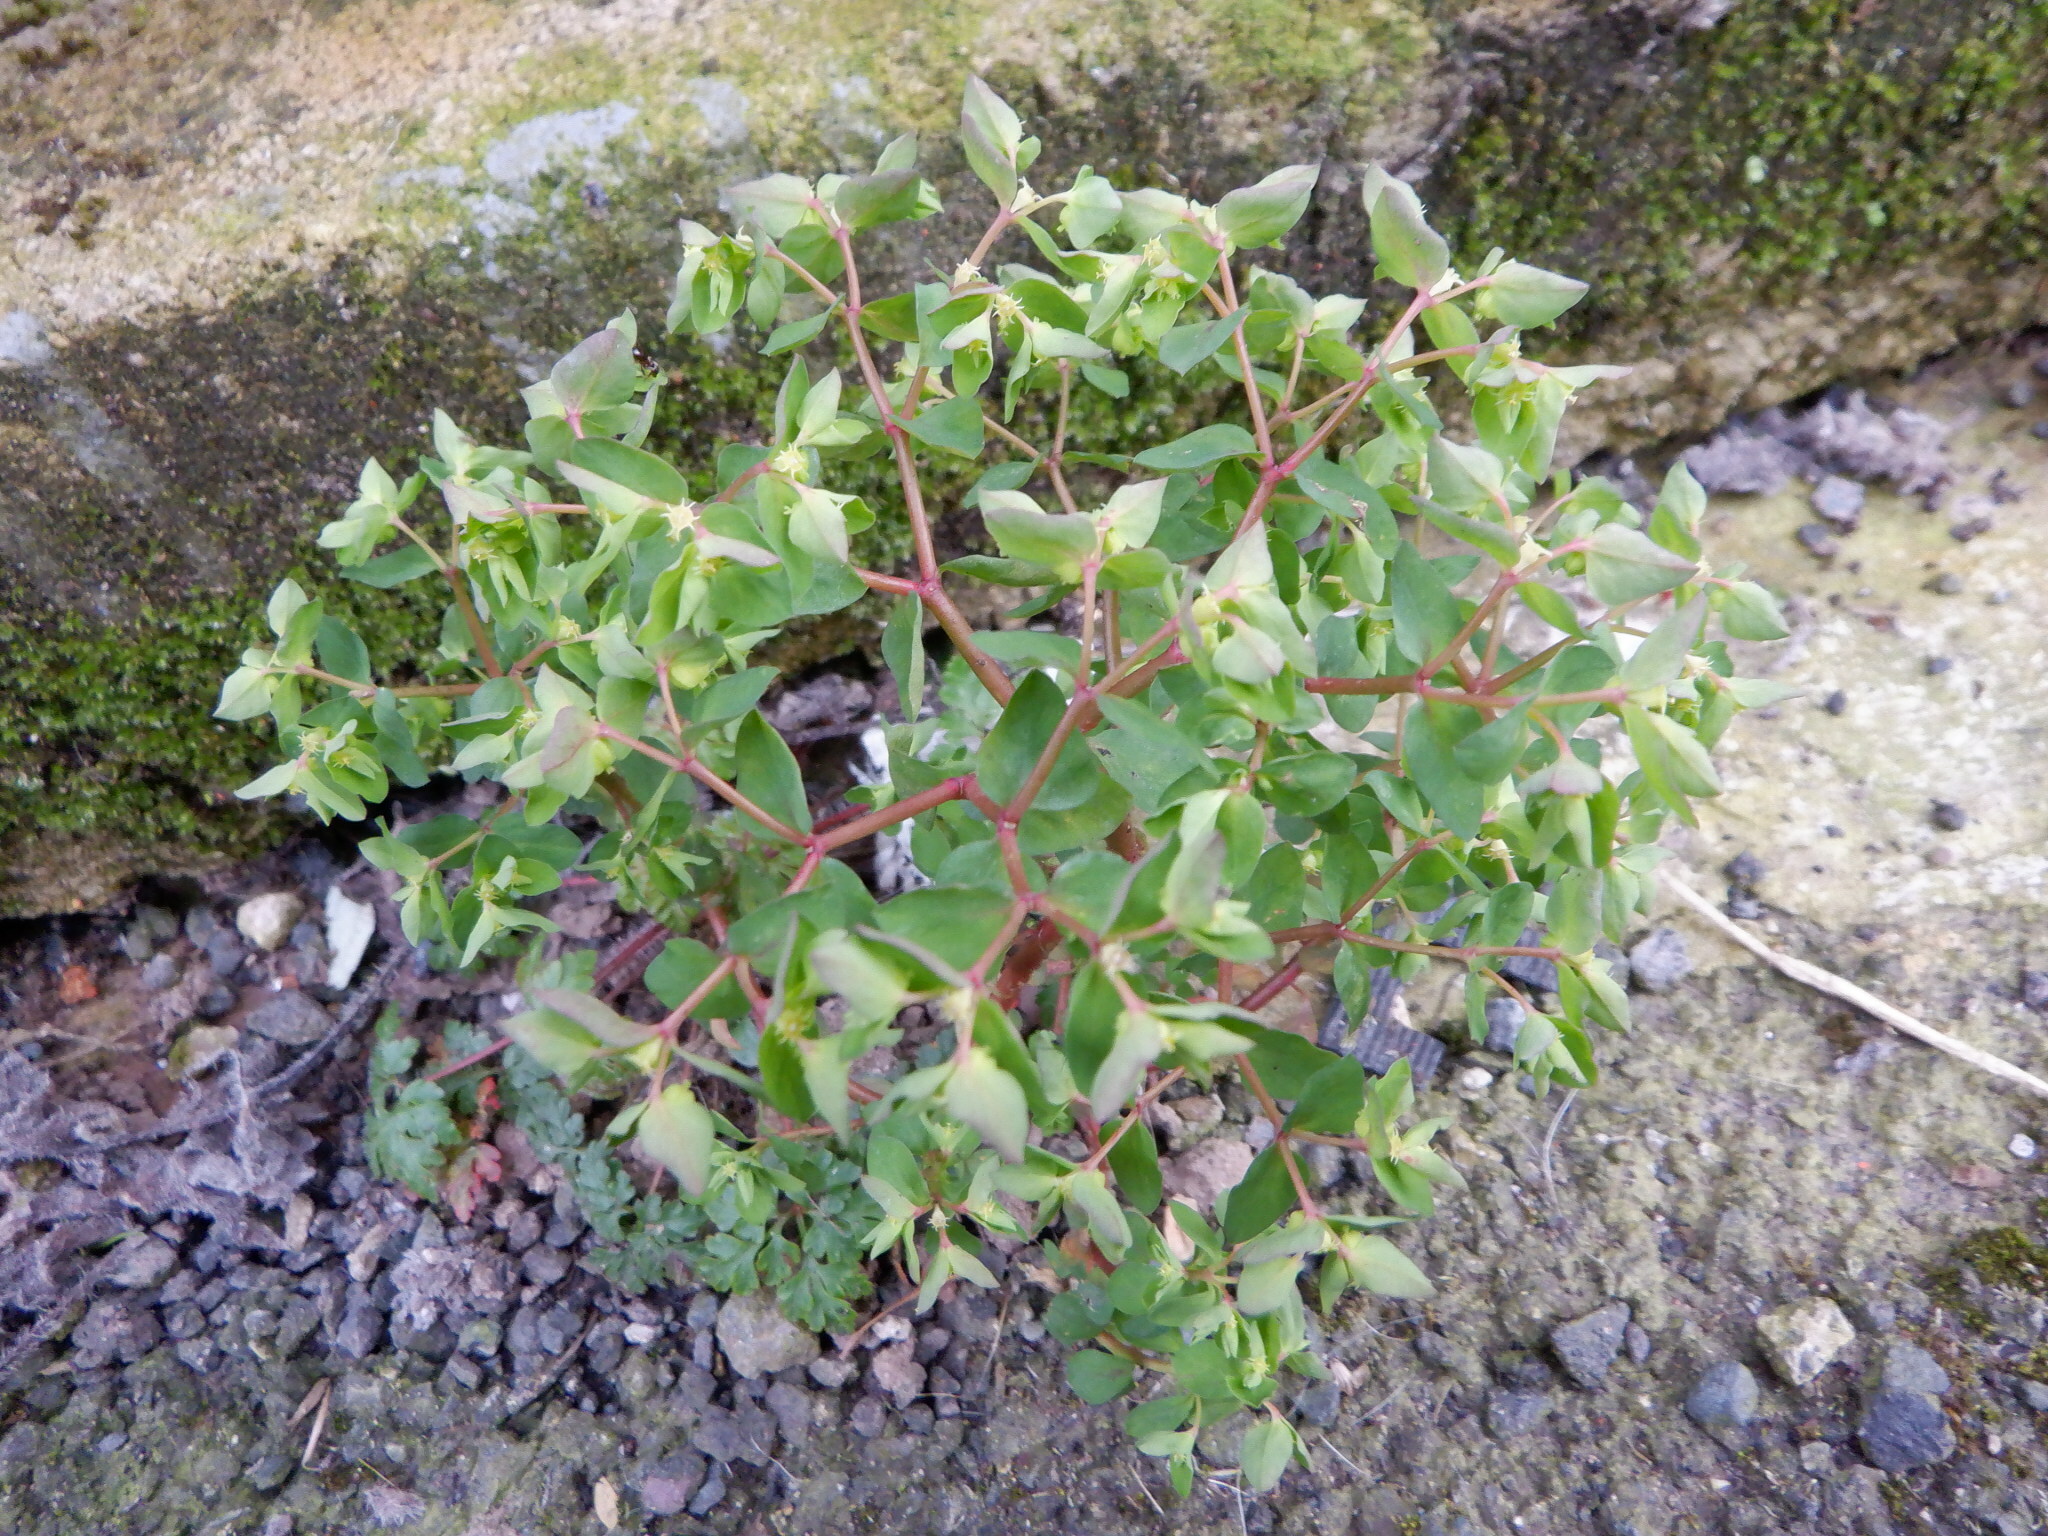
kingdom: Plantae
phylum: Tracheophyta
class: Magnoliopsida
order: Malpighiales
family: Euphorbiaceae
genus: Euphorbia
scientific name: Euphorbia peplus
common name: Petty spurge
